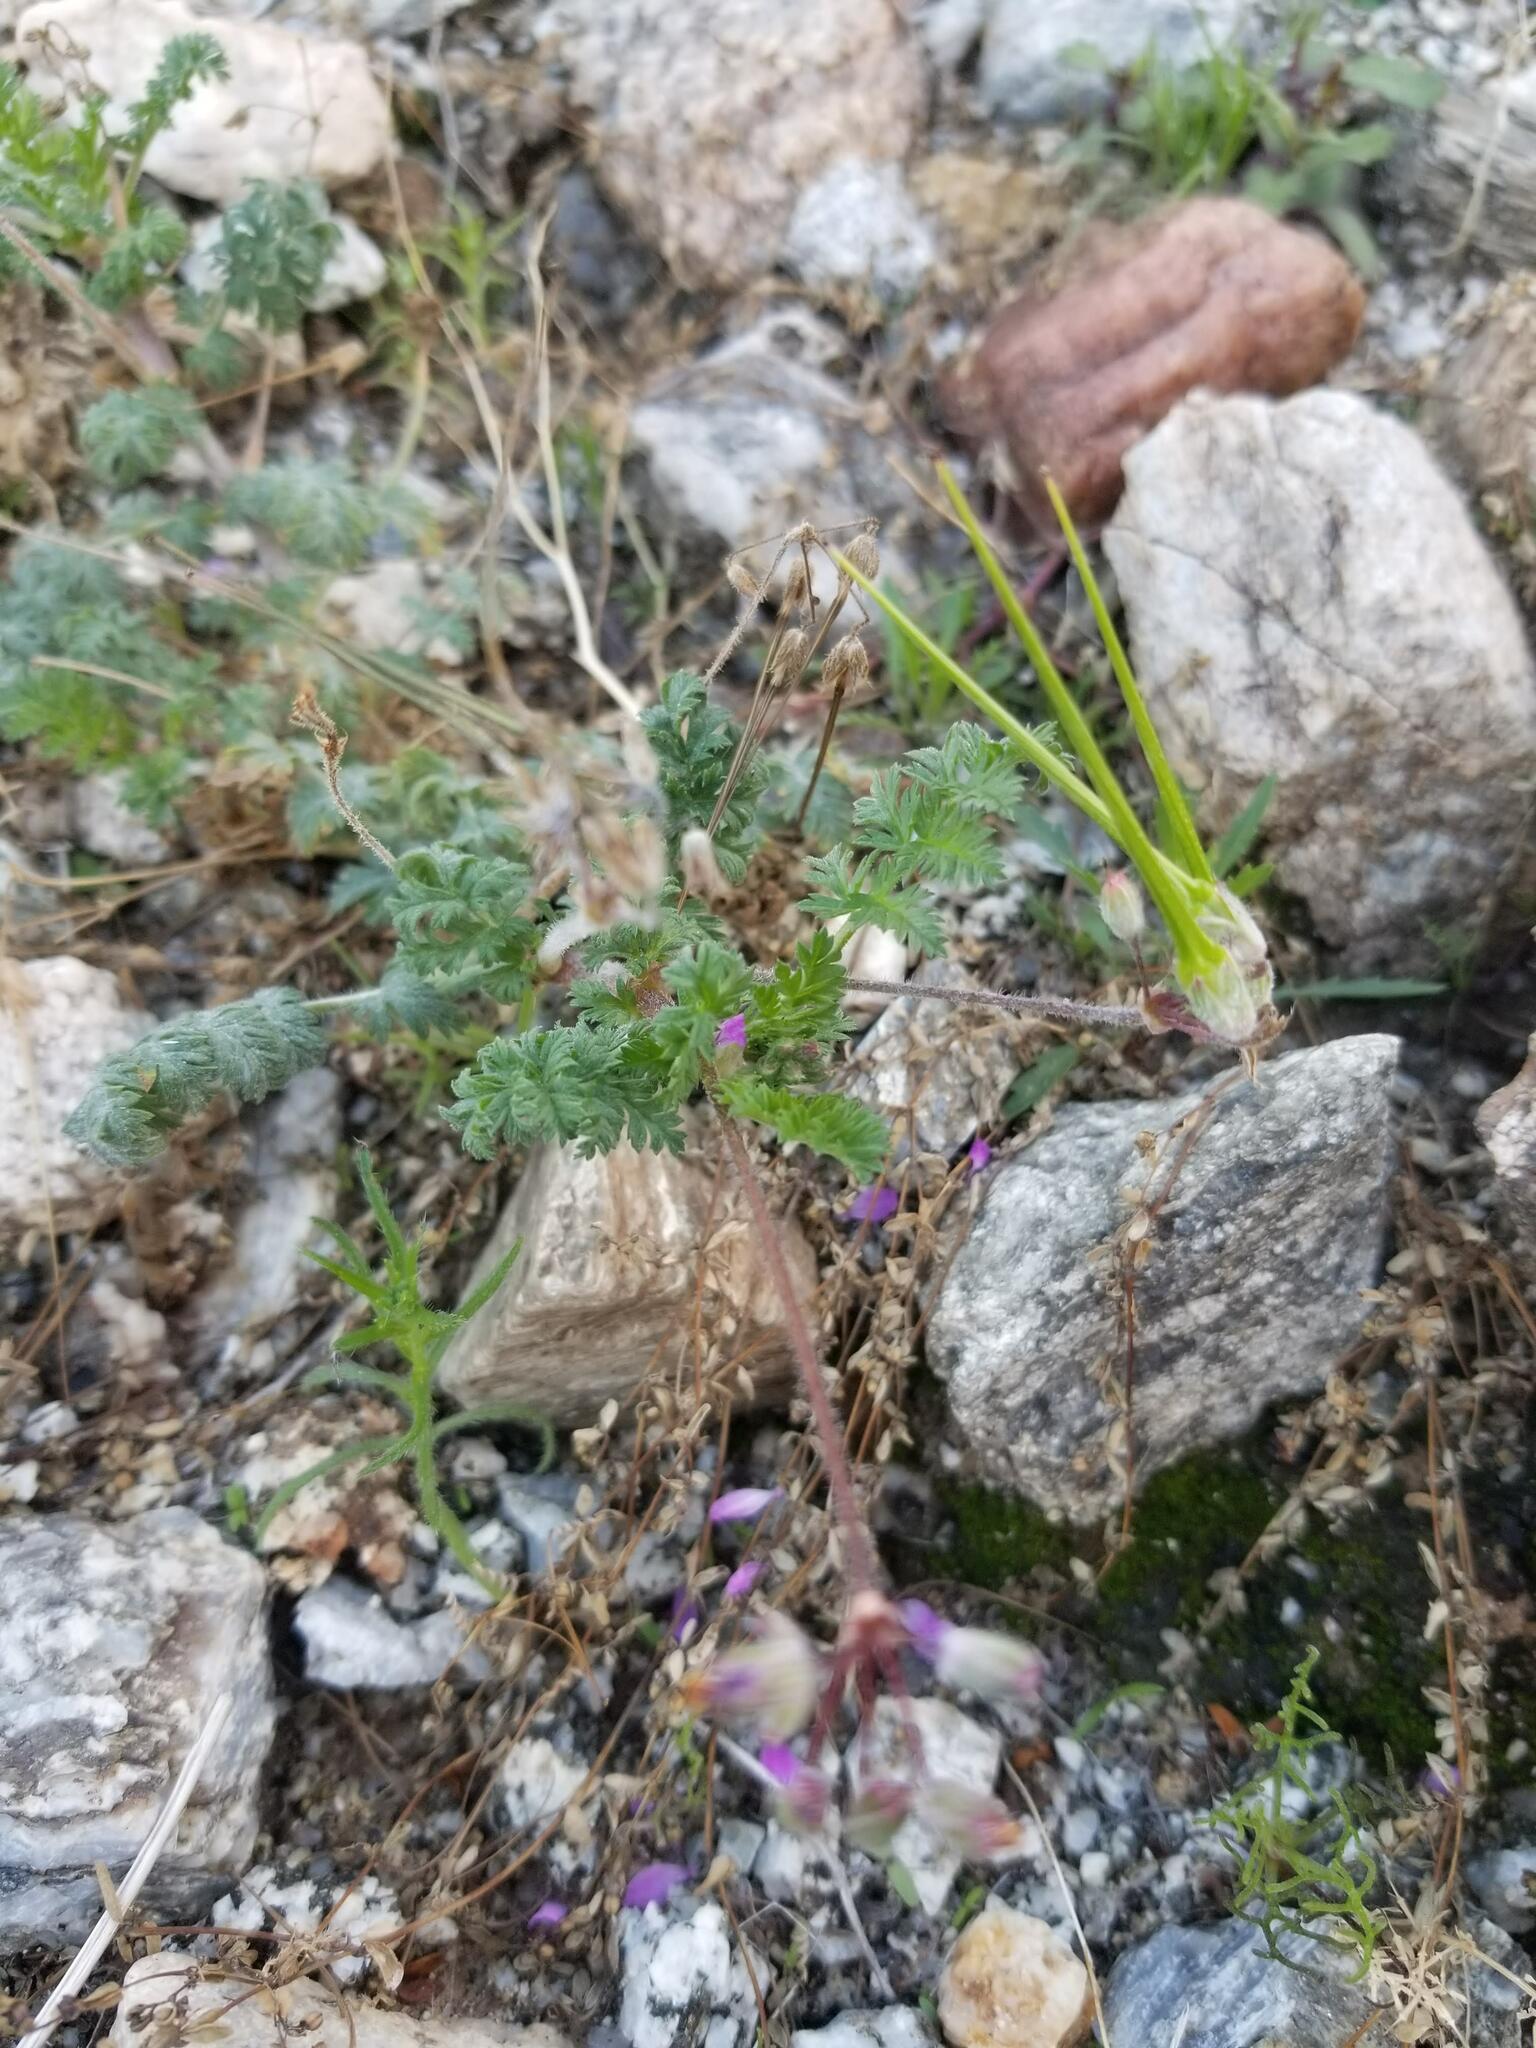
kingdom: Plantae
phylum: Tracheophyta
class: Magnoliopsida
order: Geraniales
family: Geraniaceae
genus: Erodium
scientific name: Erodium cicutarium
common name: Common stork's-bill
